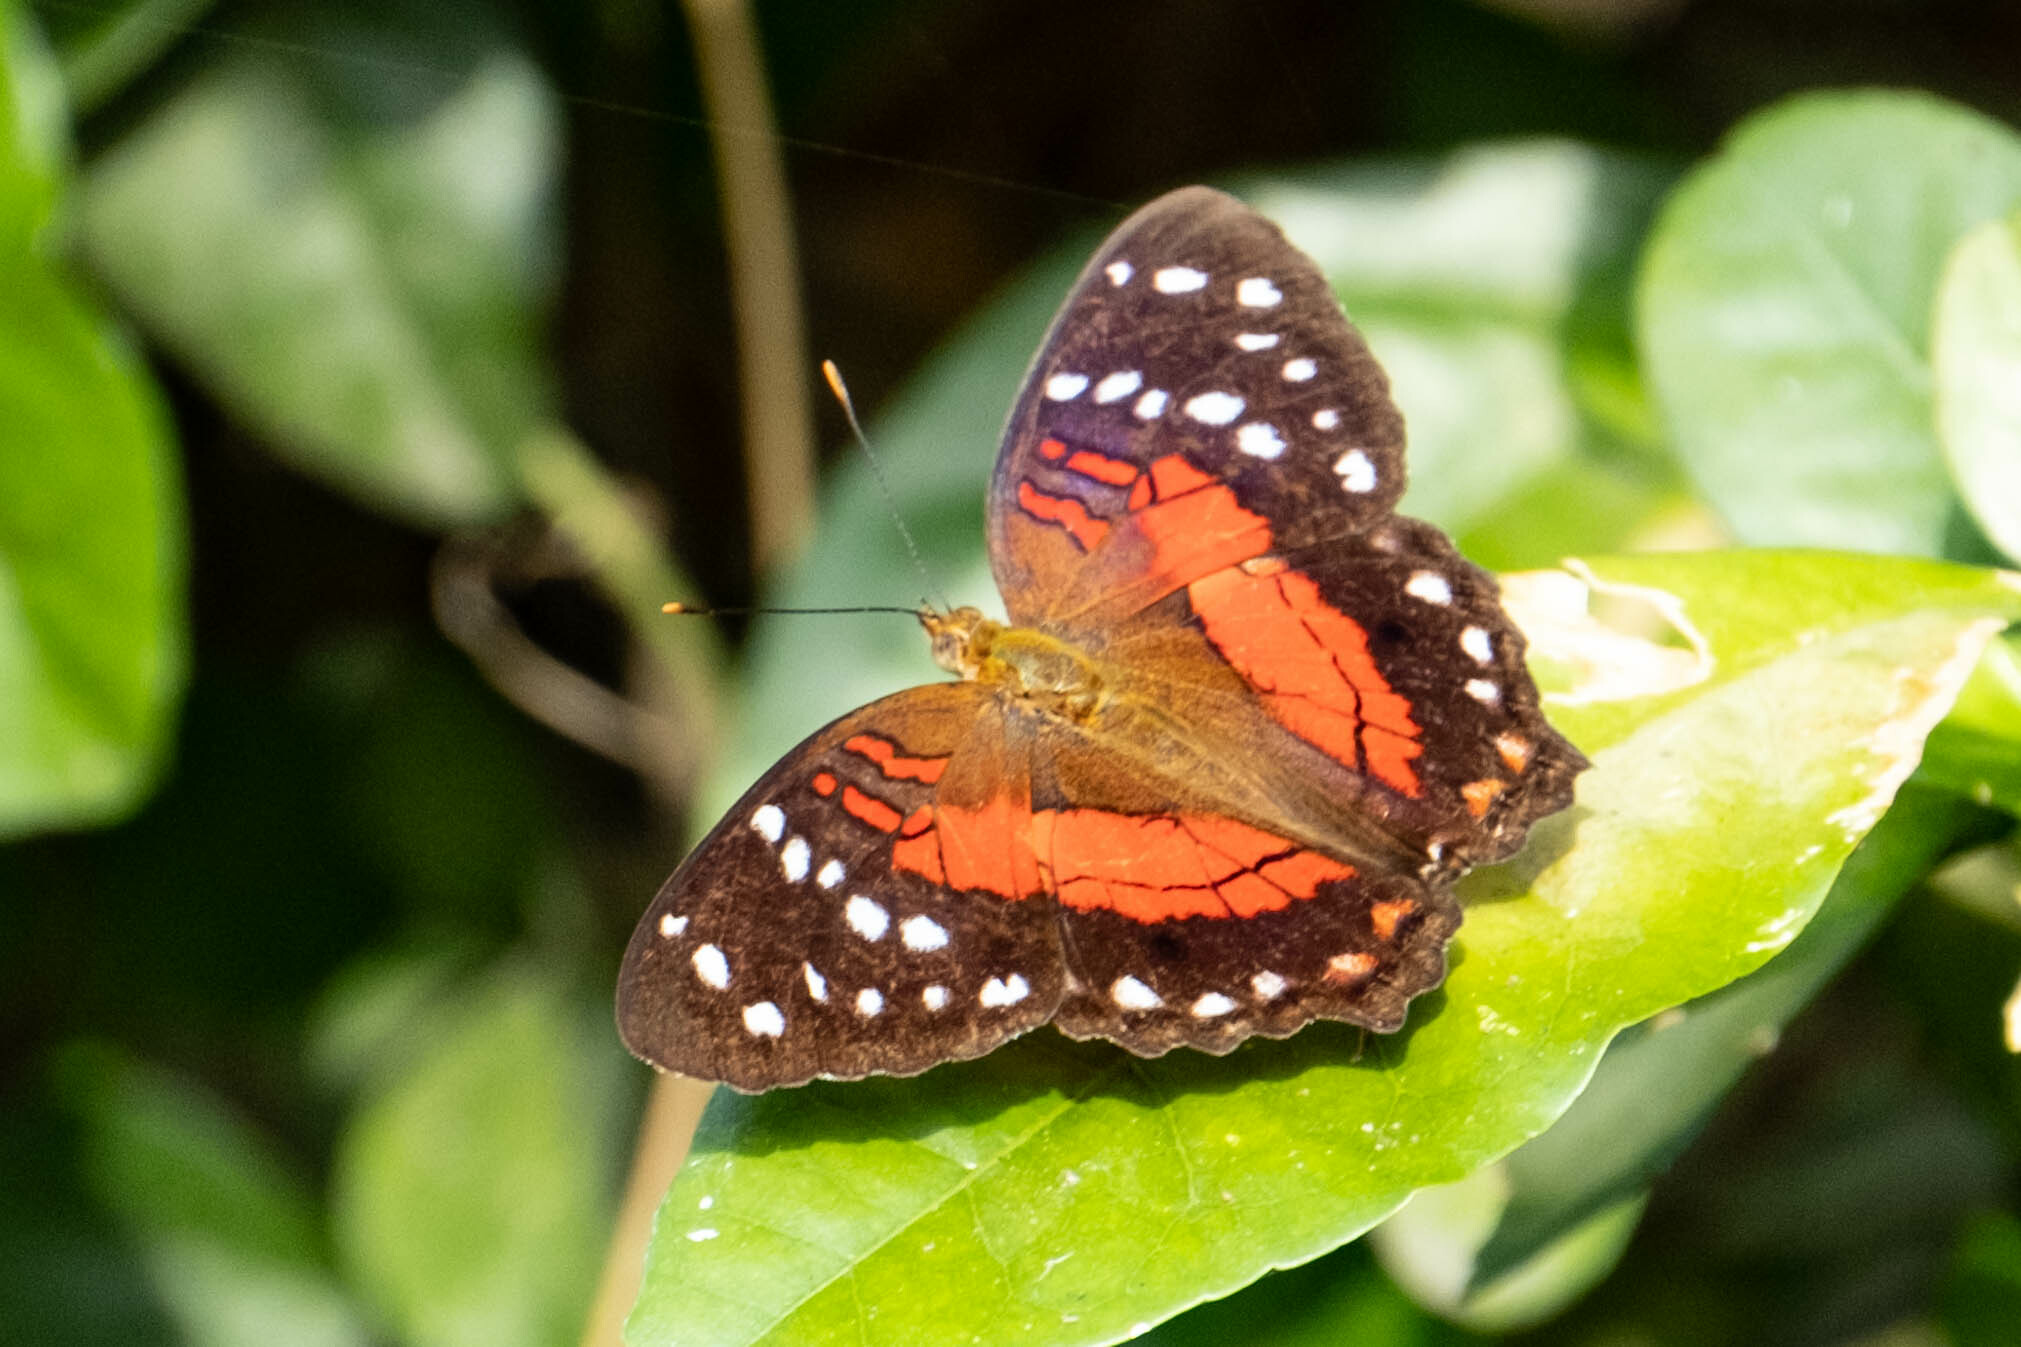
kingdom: Animalia
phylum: Arthropoda
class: Insecta
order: Lepidoptera
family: Nymphalidae
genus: Anartia
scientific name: Anartia amathea
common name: Red peacock
